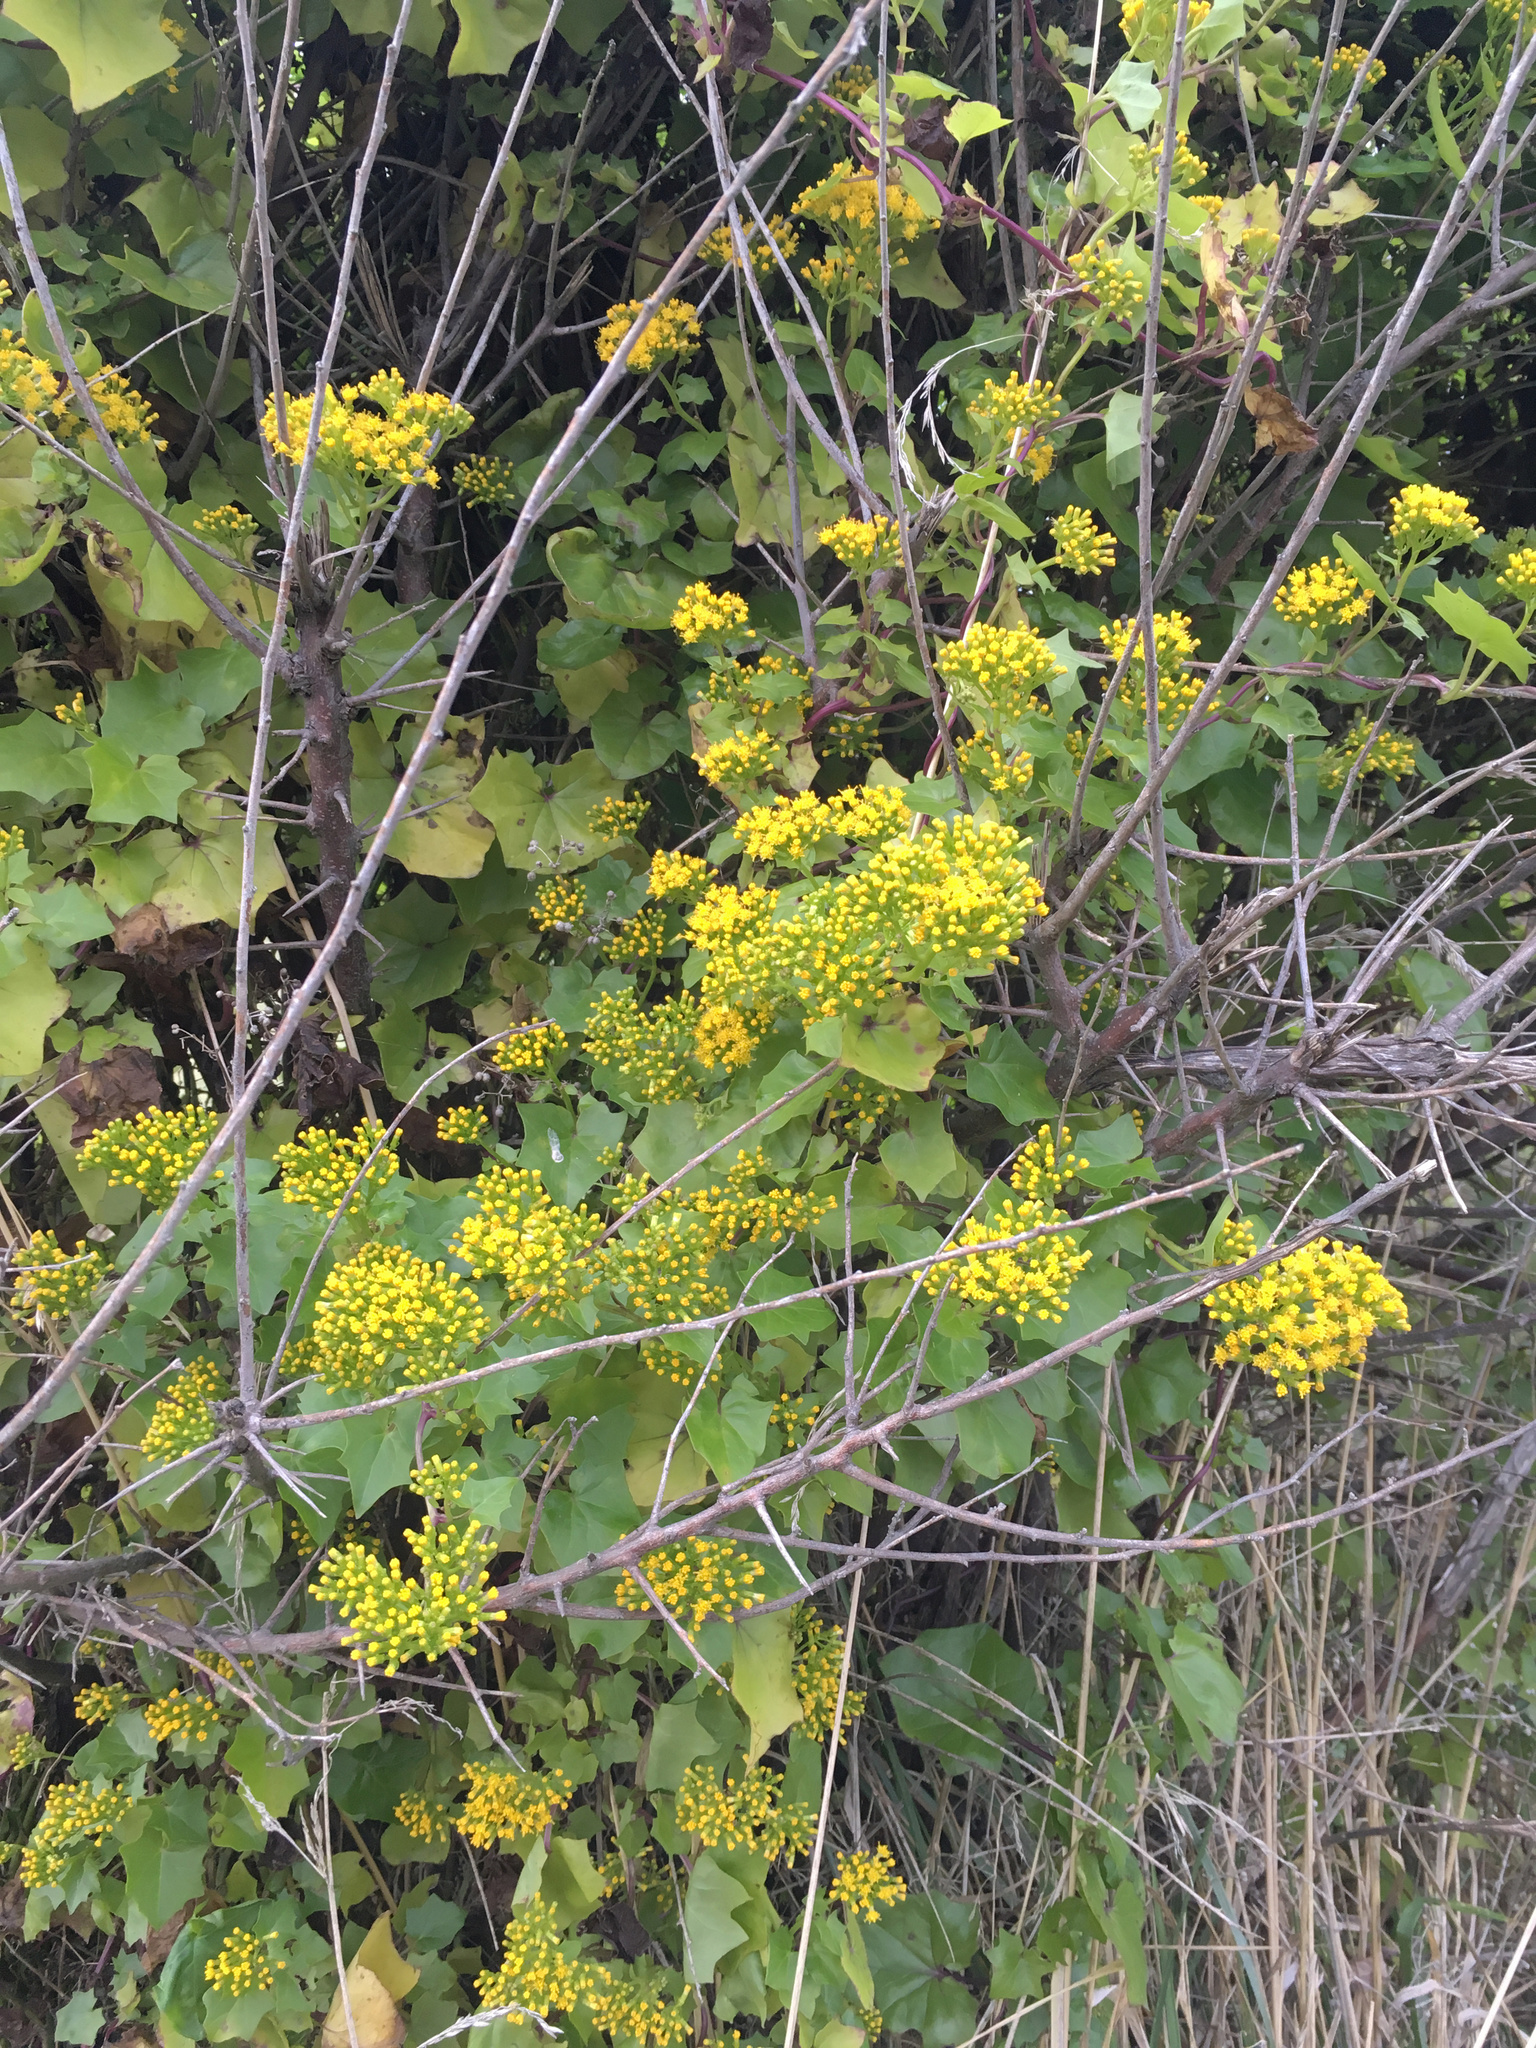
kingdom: Plantae
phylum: Tracheophyta
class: Magnoliopsida
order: Asterales
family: Asteraceae
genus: Delairea
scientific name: Delairea odorata
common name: Cape-ivy
